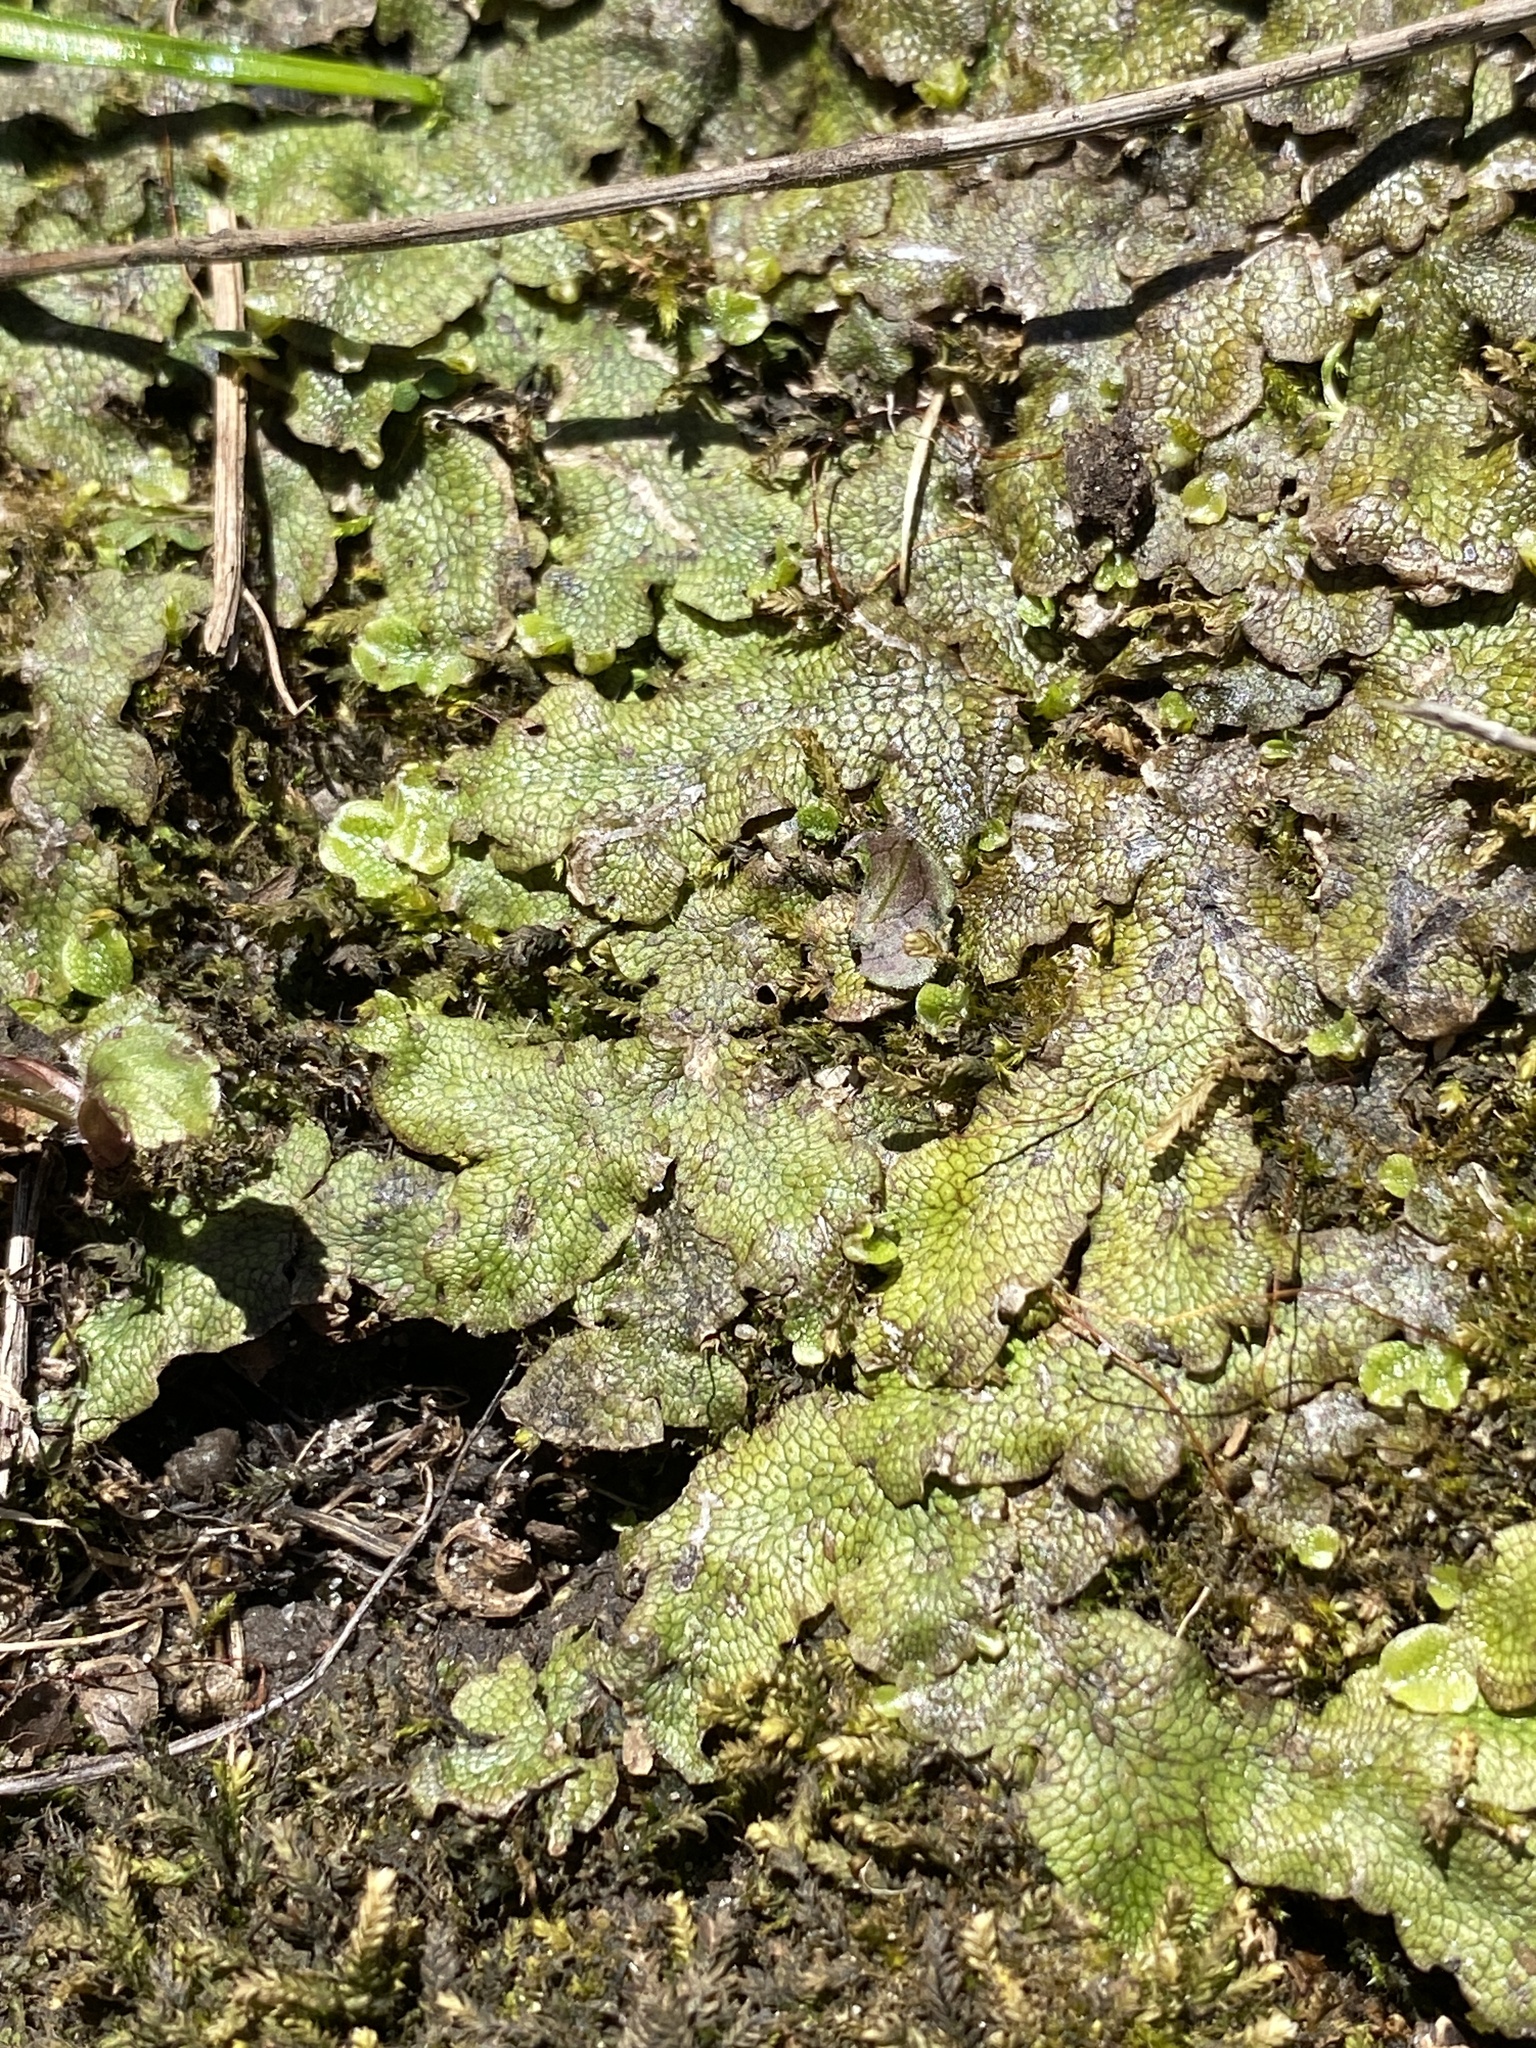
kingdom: Plantae
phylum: Marchantiophyta
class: Marchantiopsida
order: Marchantiales
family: Conocephalaceae
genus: Conocephalum
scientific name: Conocephalum salebrosum
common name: Cat-tongue liverwort
